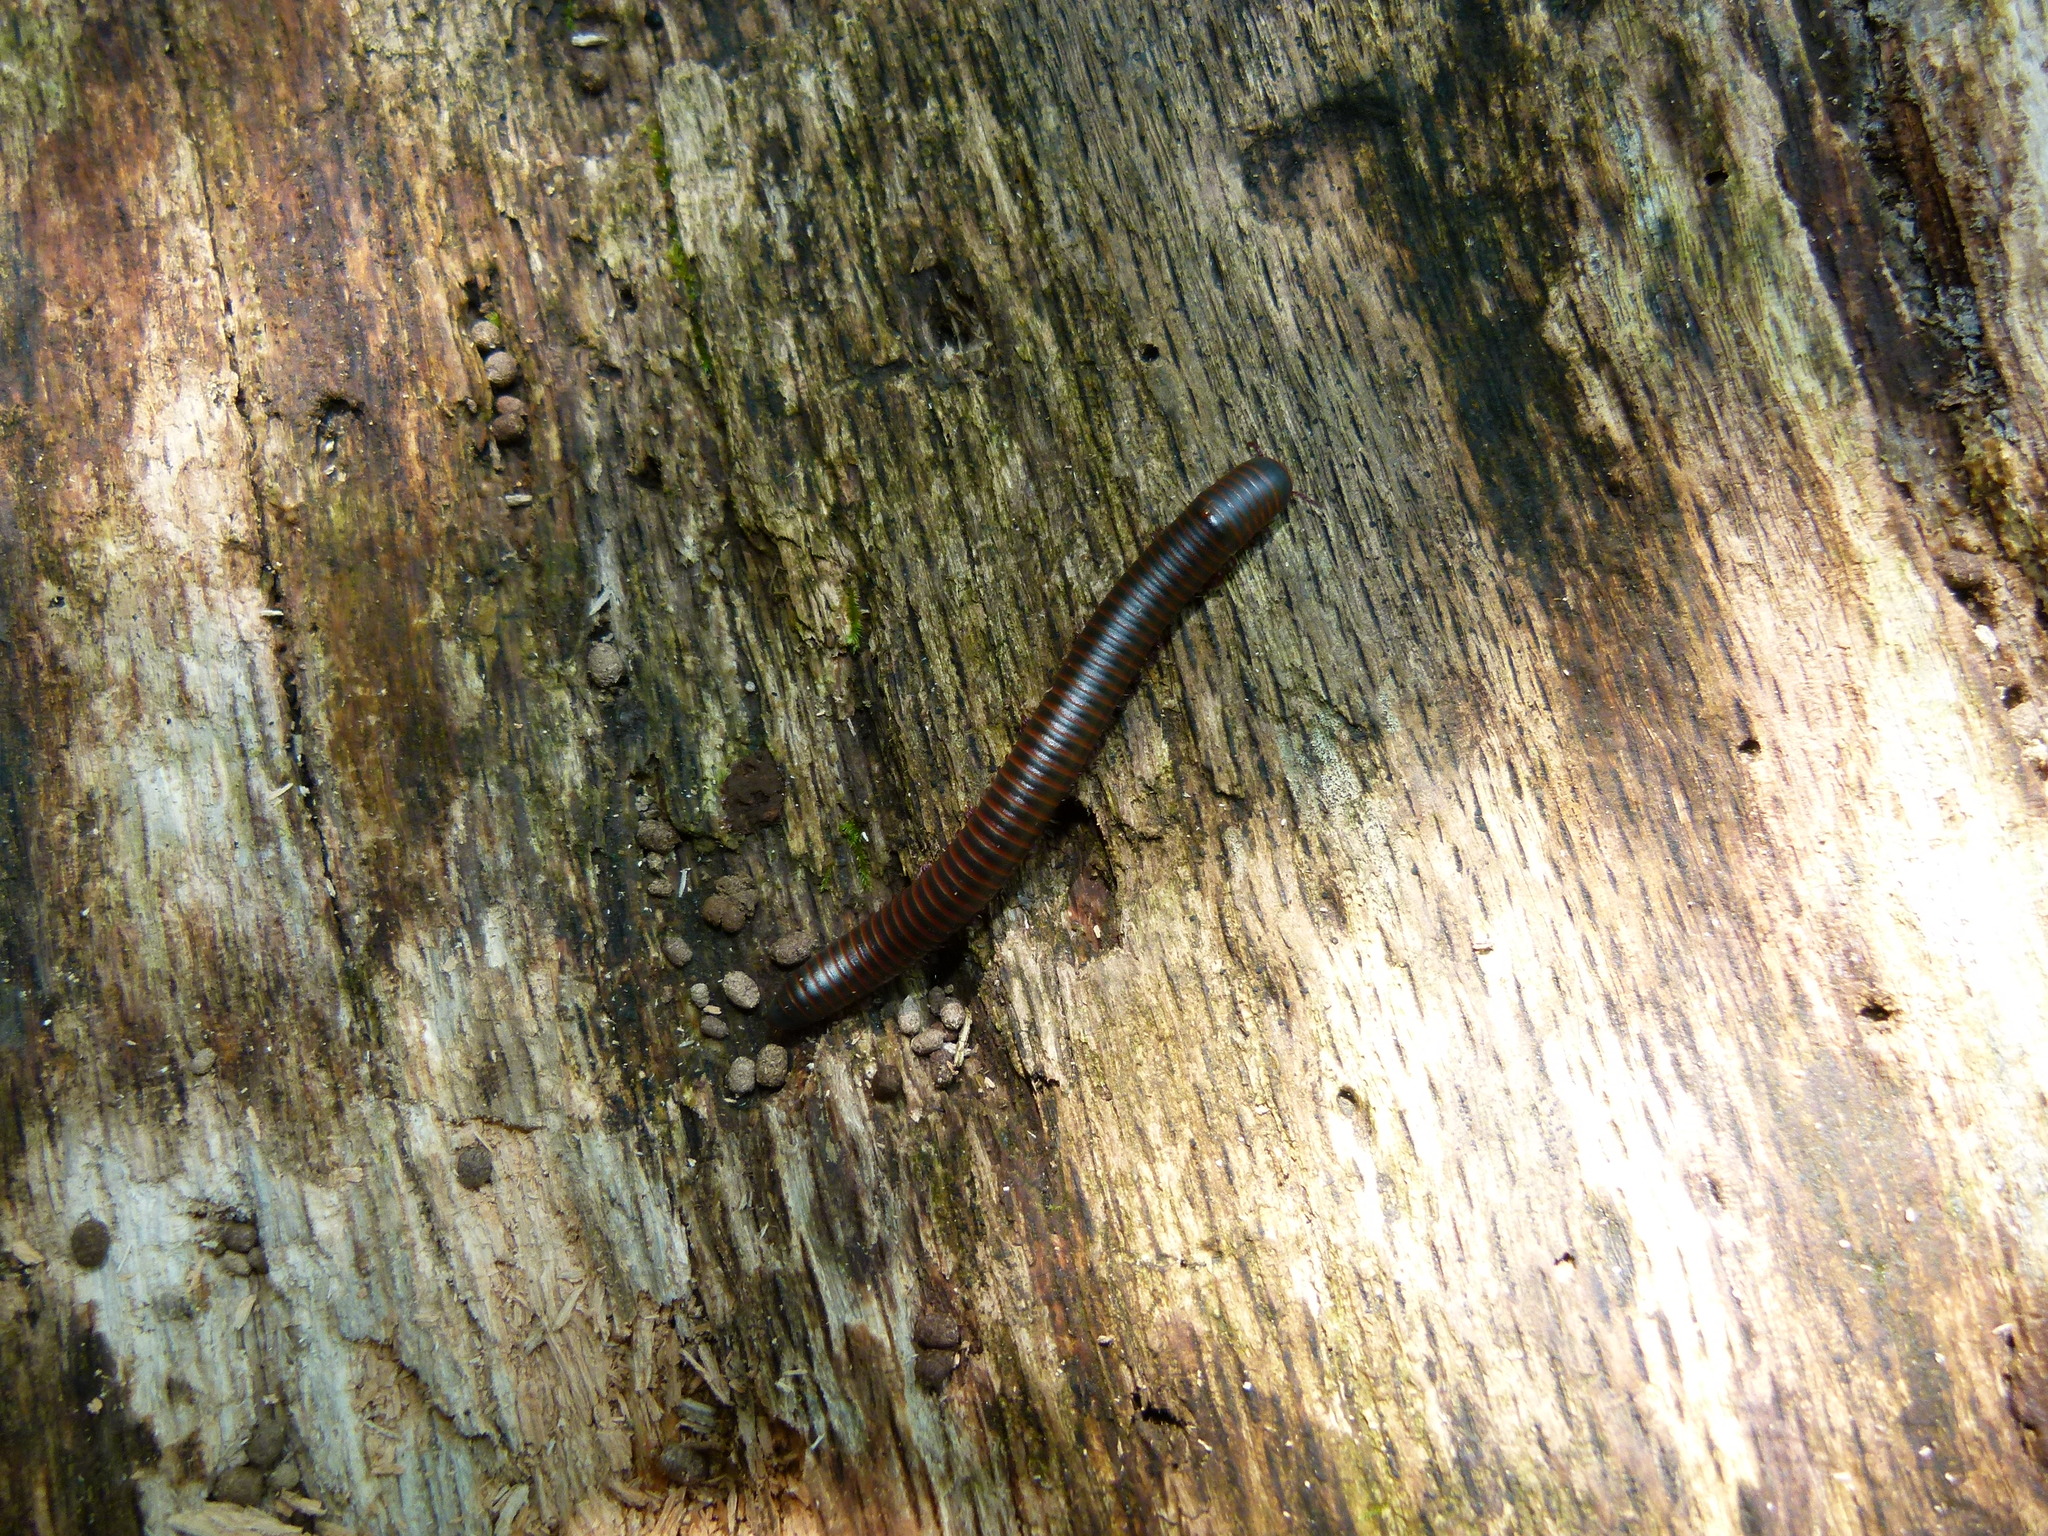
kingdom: Animalia
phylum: Arthropoda
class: Diplopoda
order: Spirobolida
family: Spirobolidae
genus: Narceus
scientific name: Narceus
